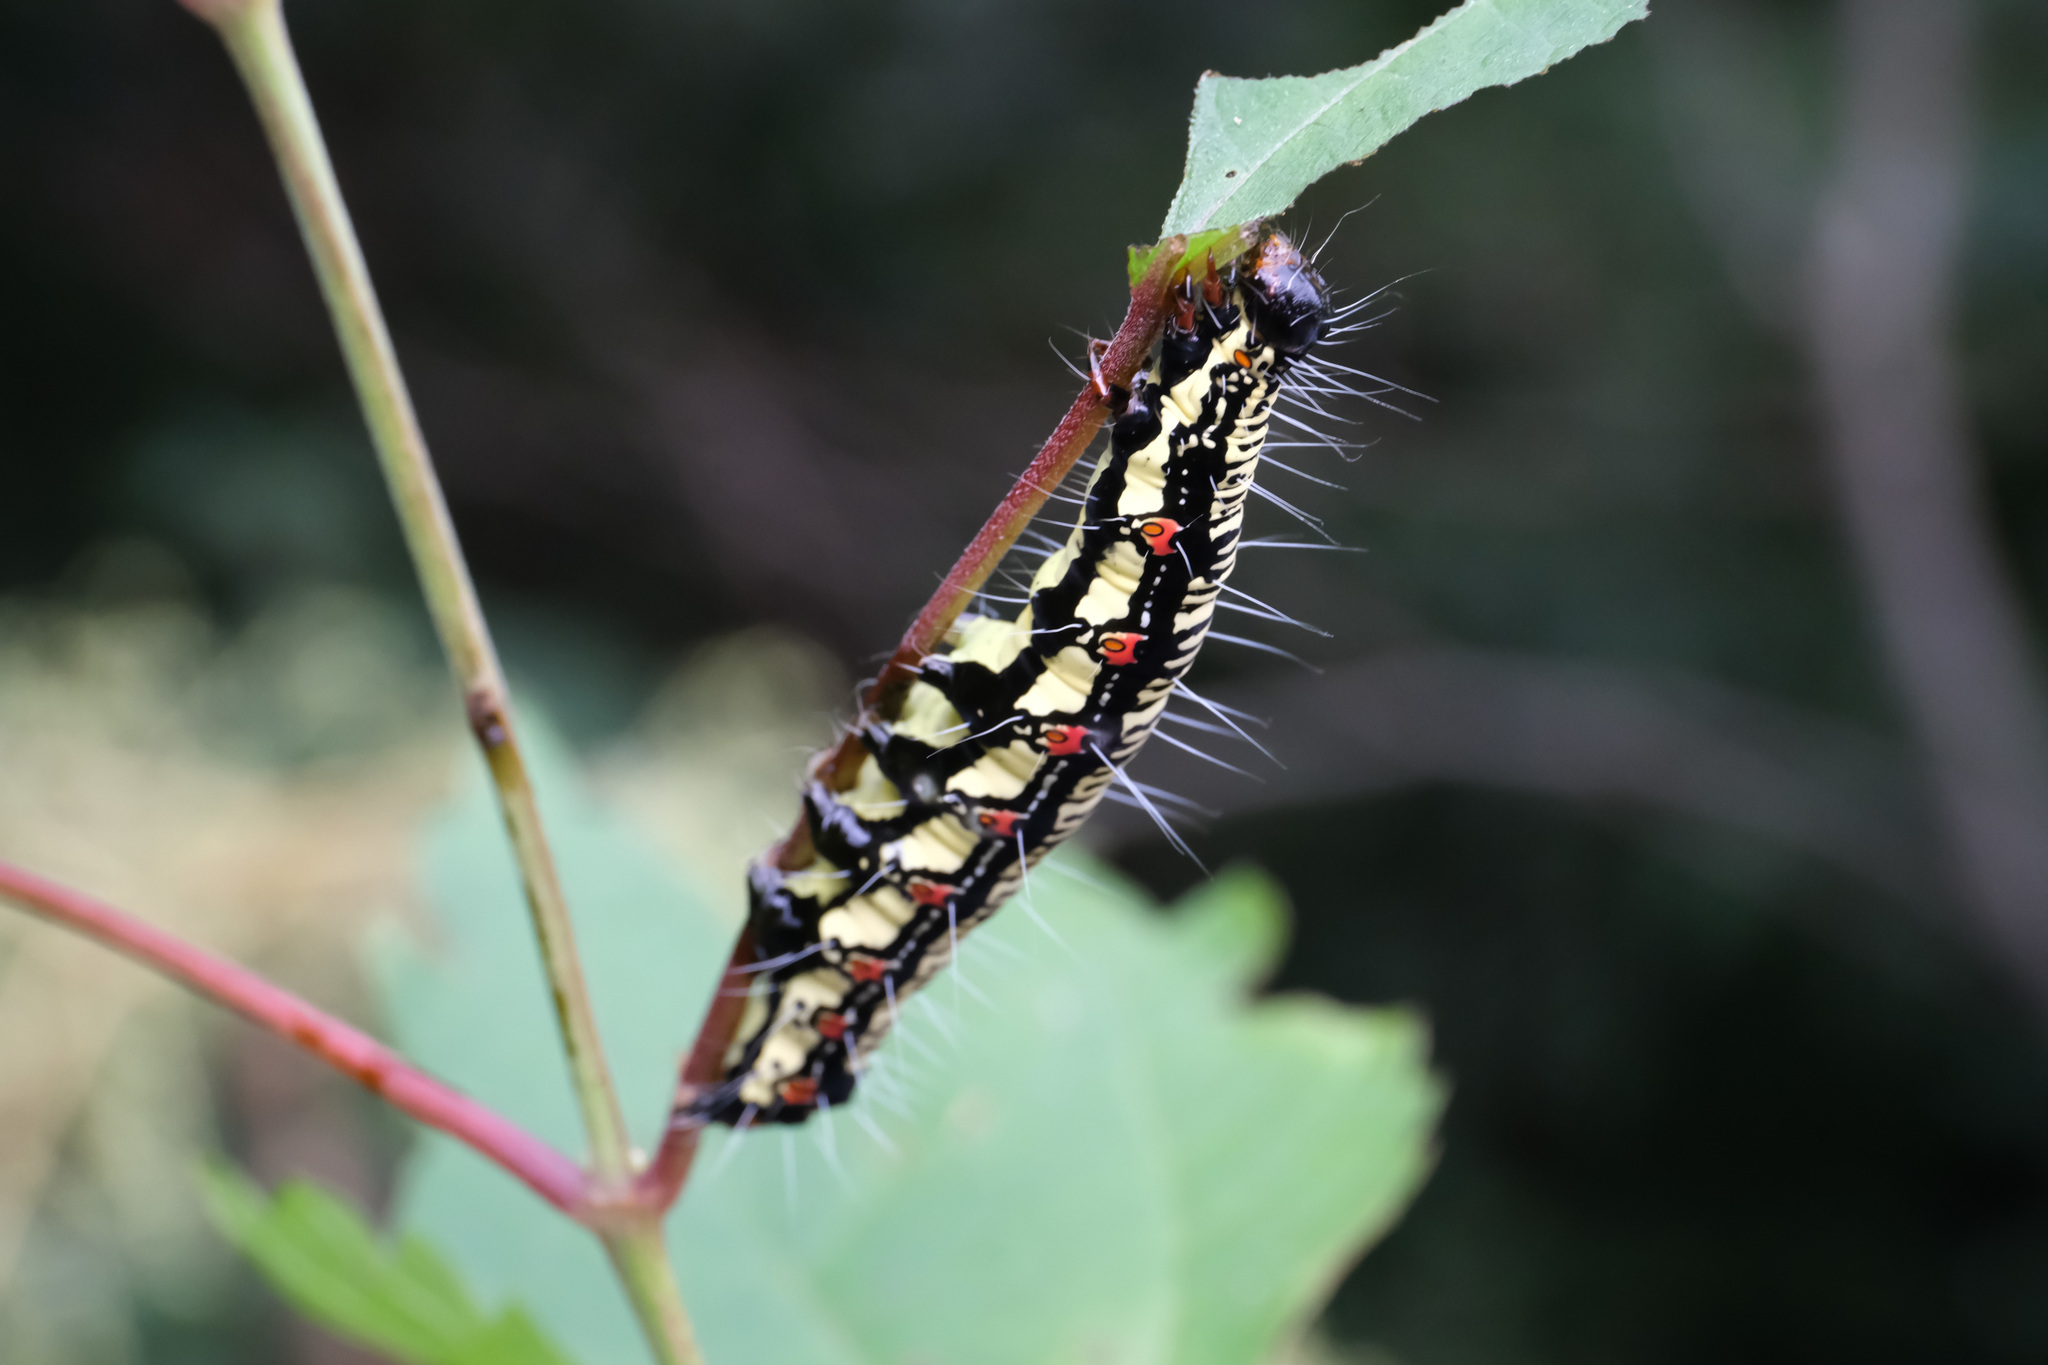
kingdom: Animalia
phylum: Arthropoda
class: Insecta
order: Lepidoptera
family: Erebidae
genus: Arcte
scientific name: Arcte coerula
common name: Ramie moth
